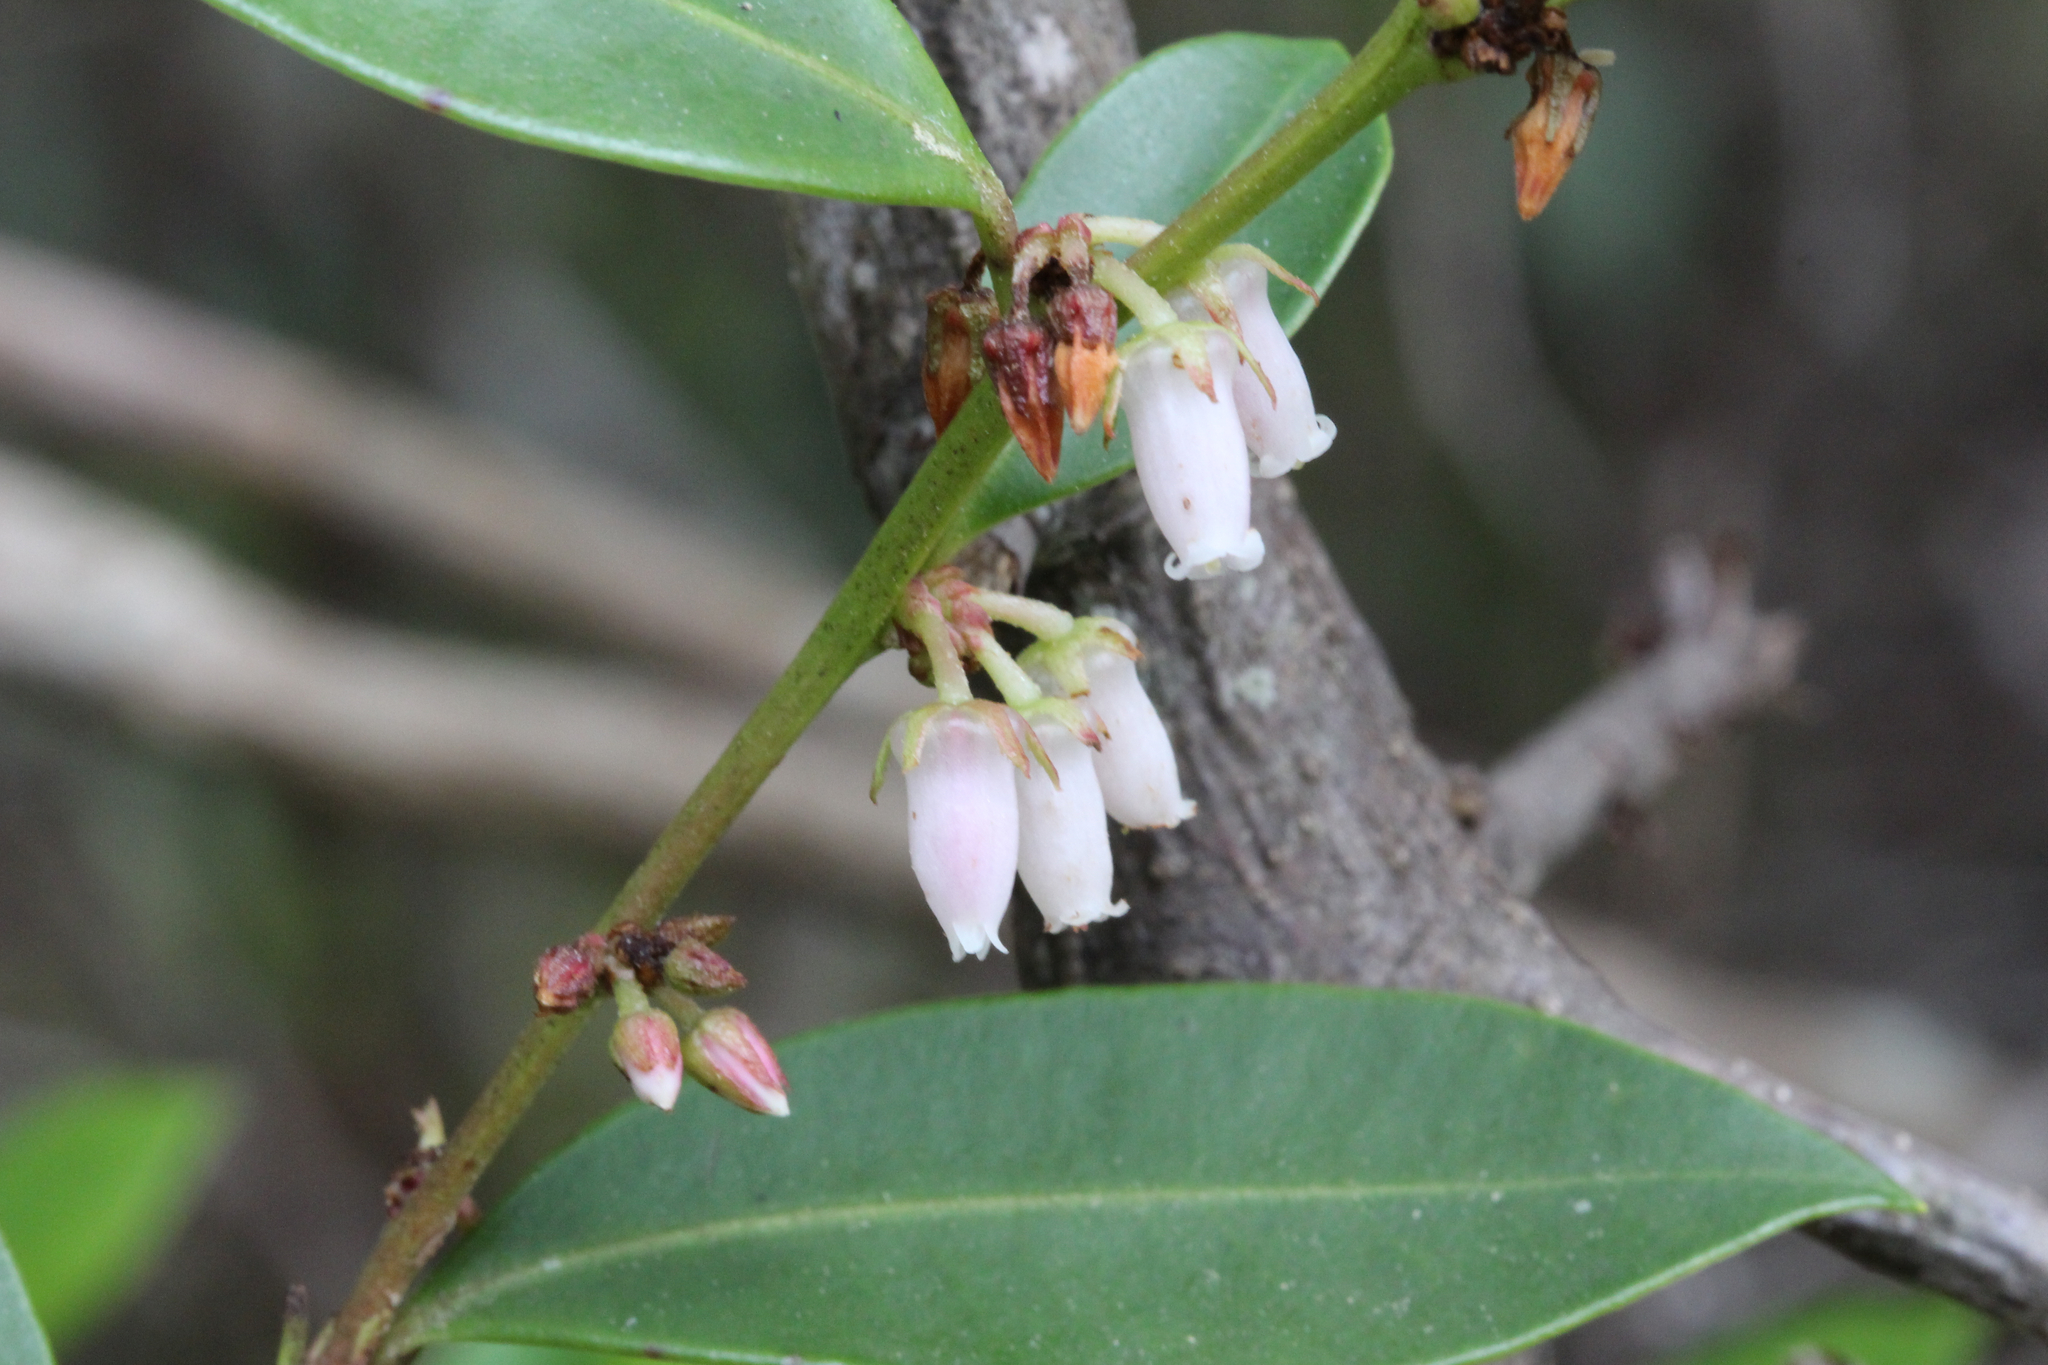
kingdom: Plantae
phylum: Tracheophyta
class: Magnoliopsida
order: Ericales
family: Ericaceae
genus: Lyonia
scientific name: Lyonia lucida
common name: Fetterbush
